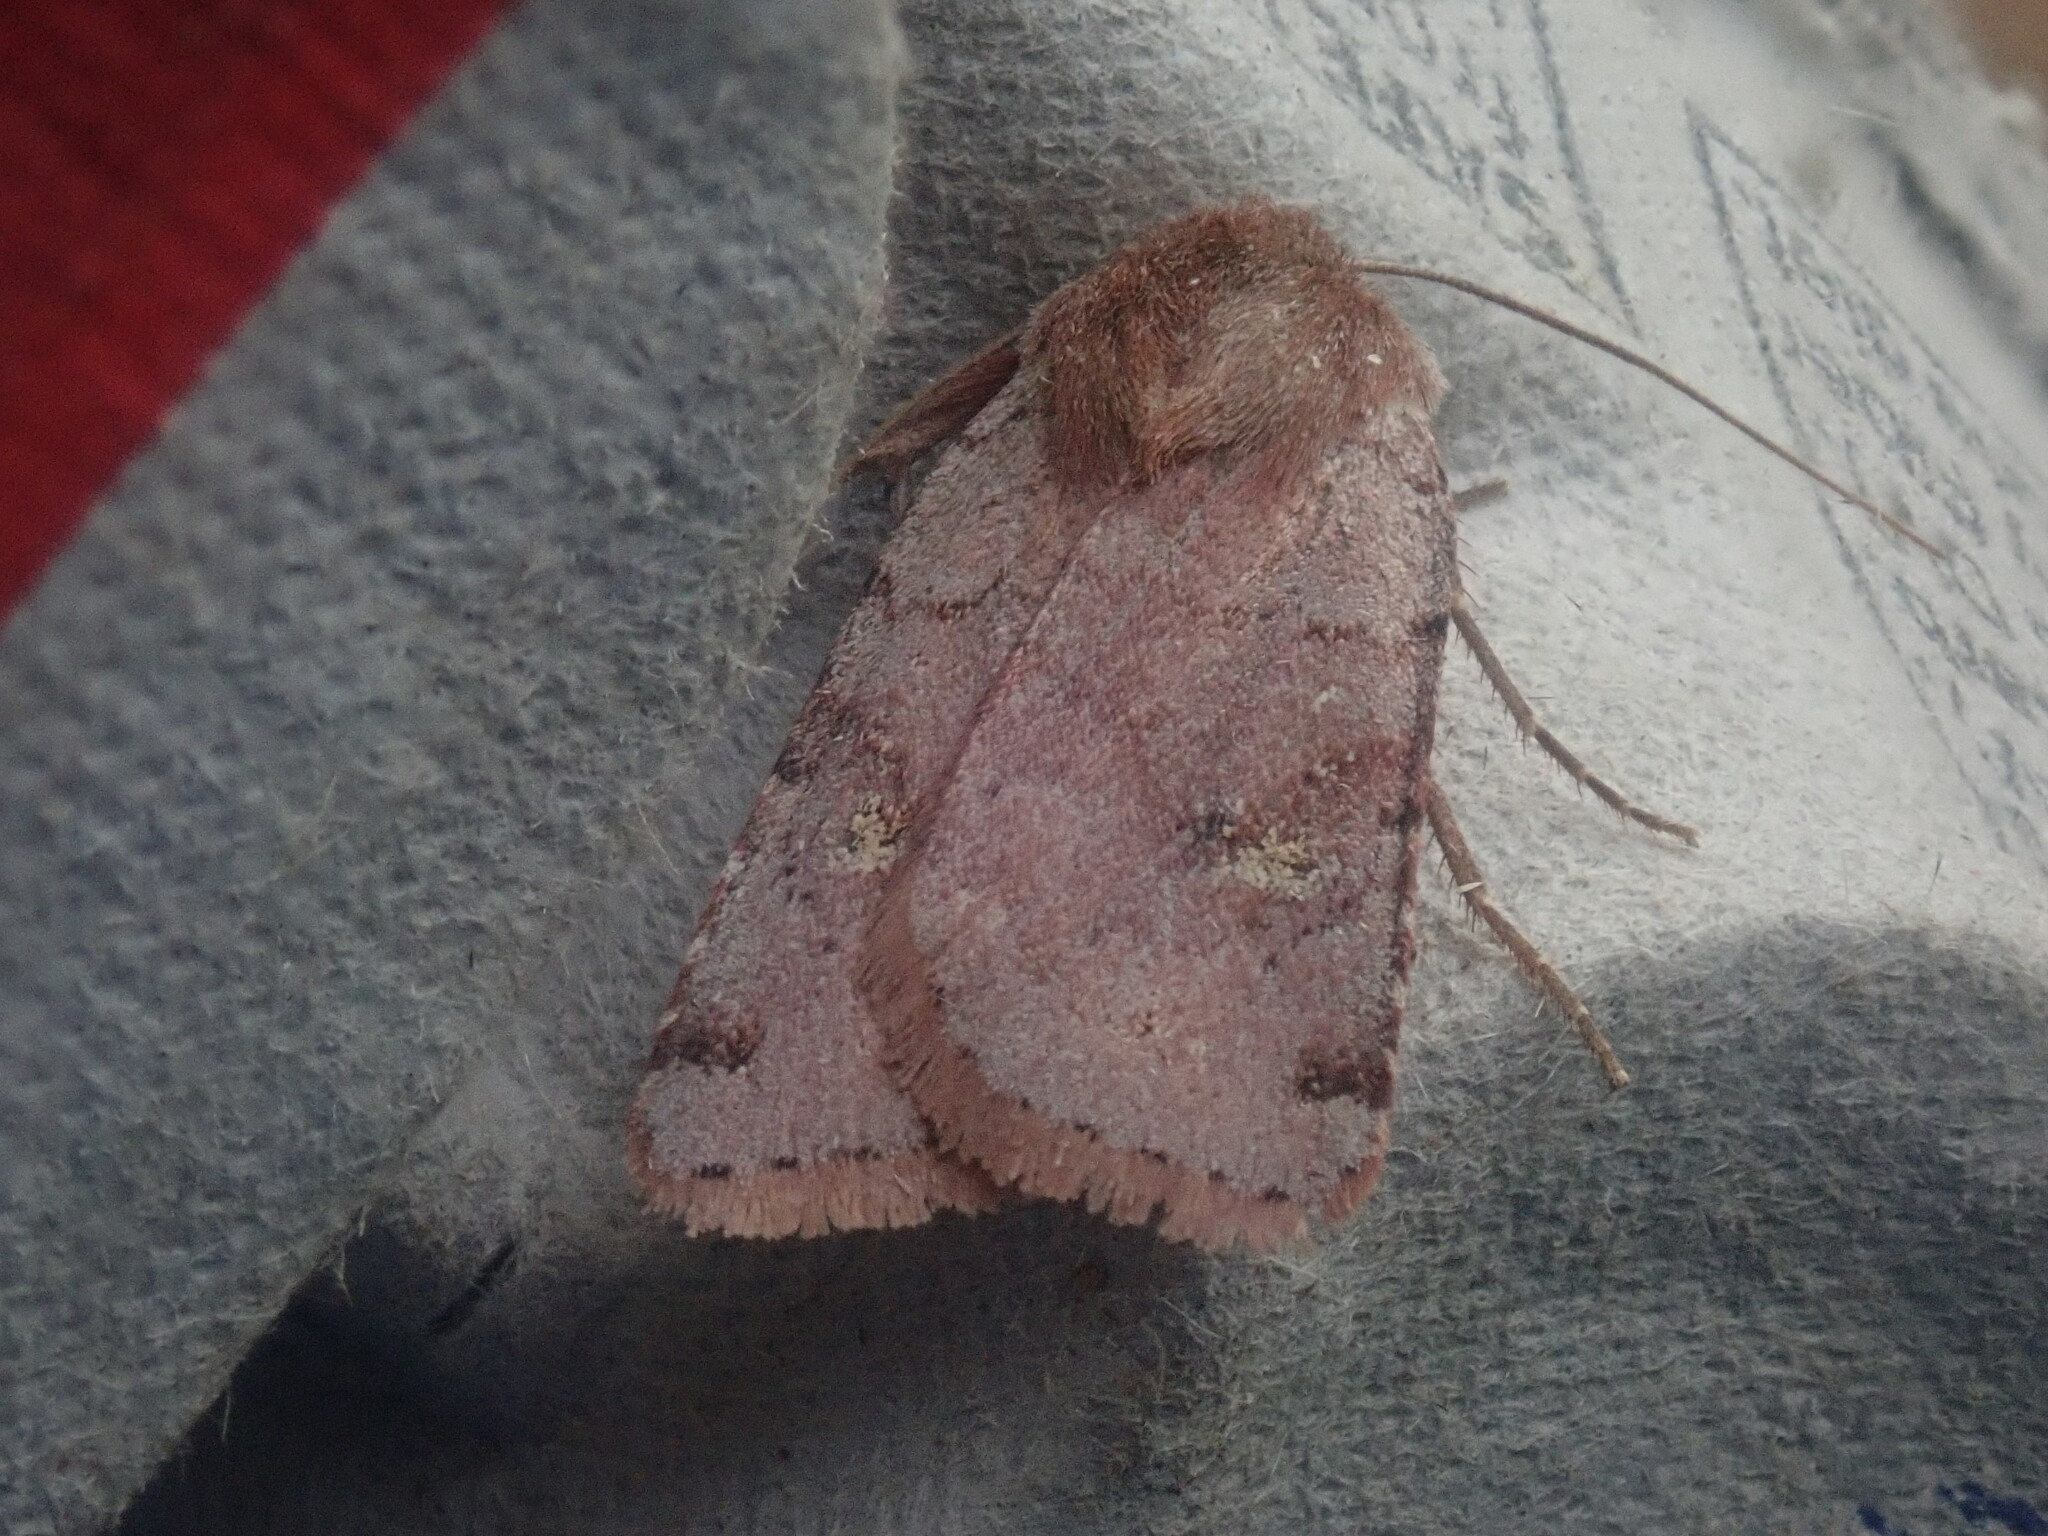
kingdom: Animalia
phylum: Arthropoda
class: Insecta
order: Lepidoptera
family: Noctuidae
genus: Cerastis
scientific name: Cerastis fishii
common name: Fish's dart
